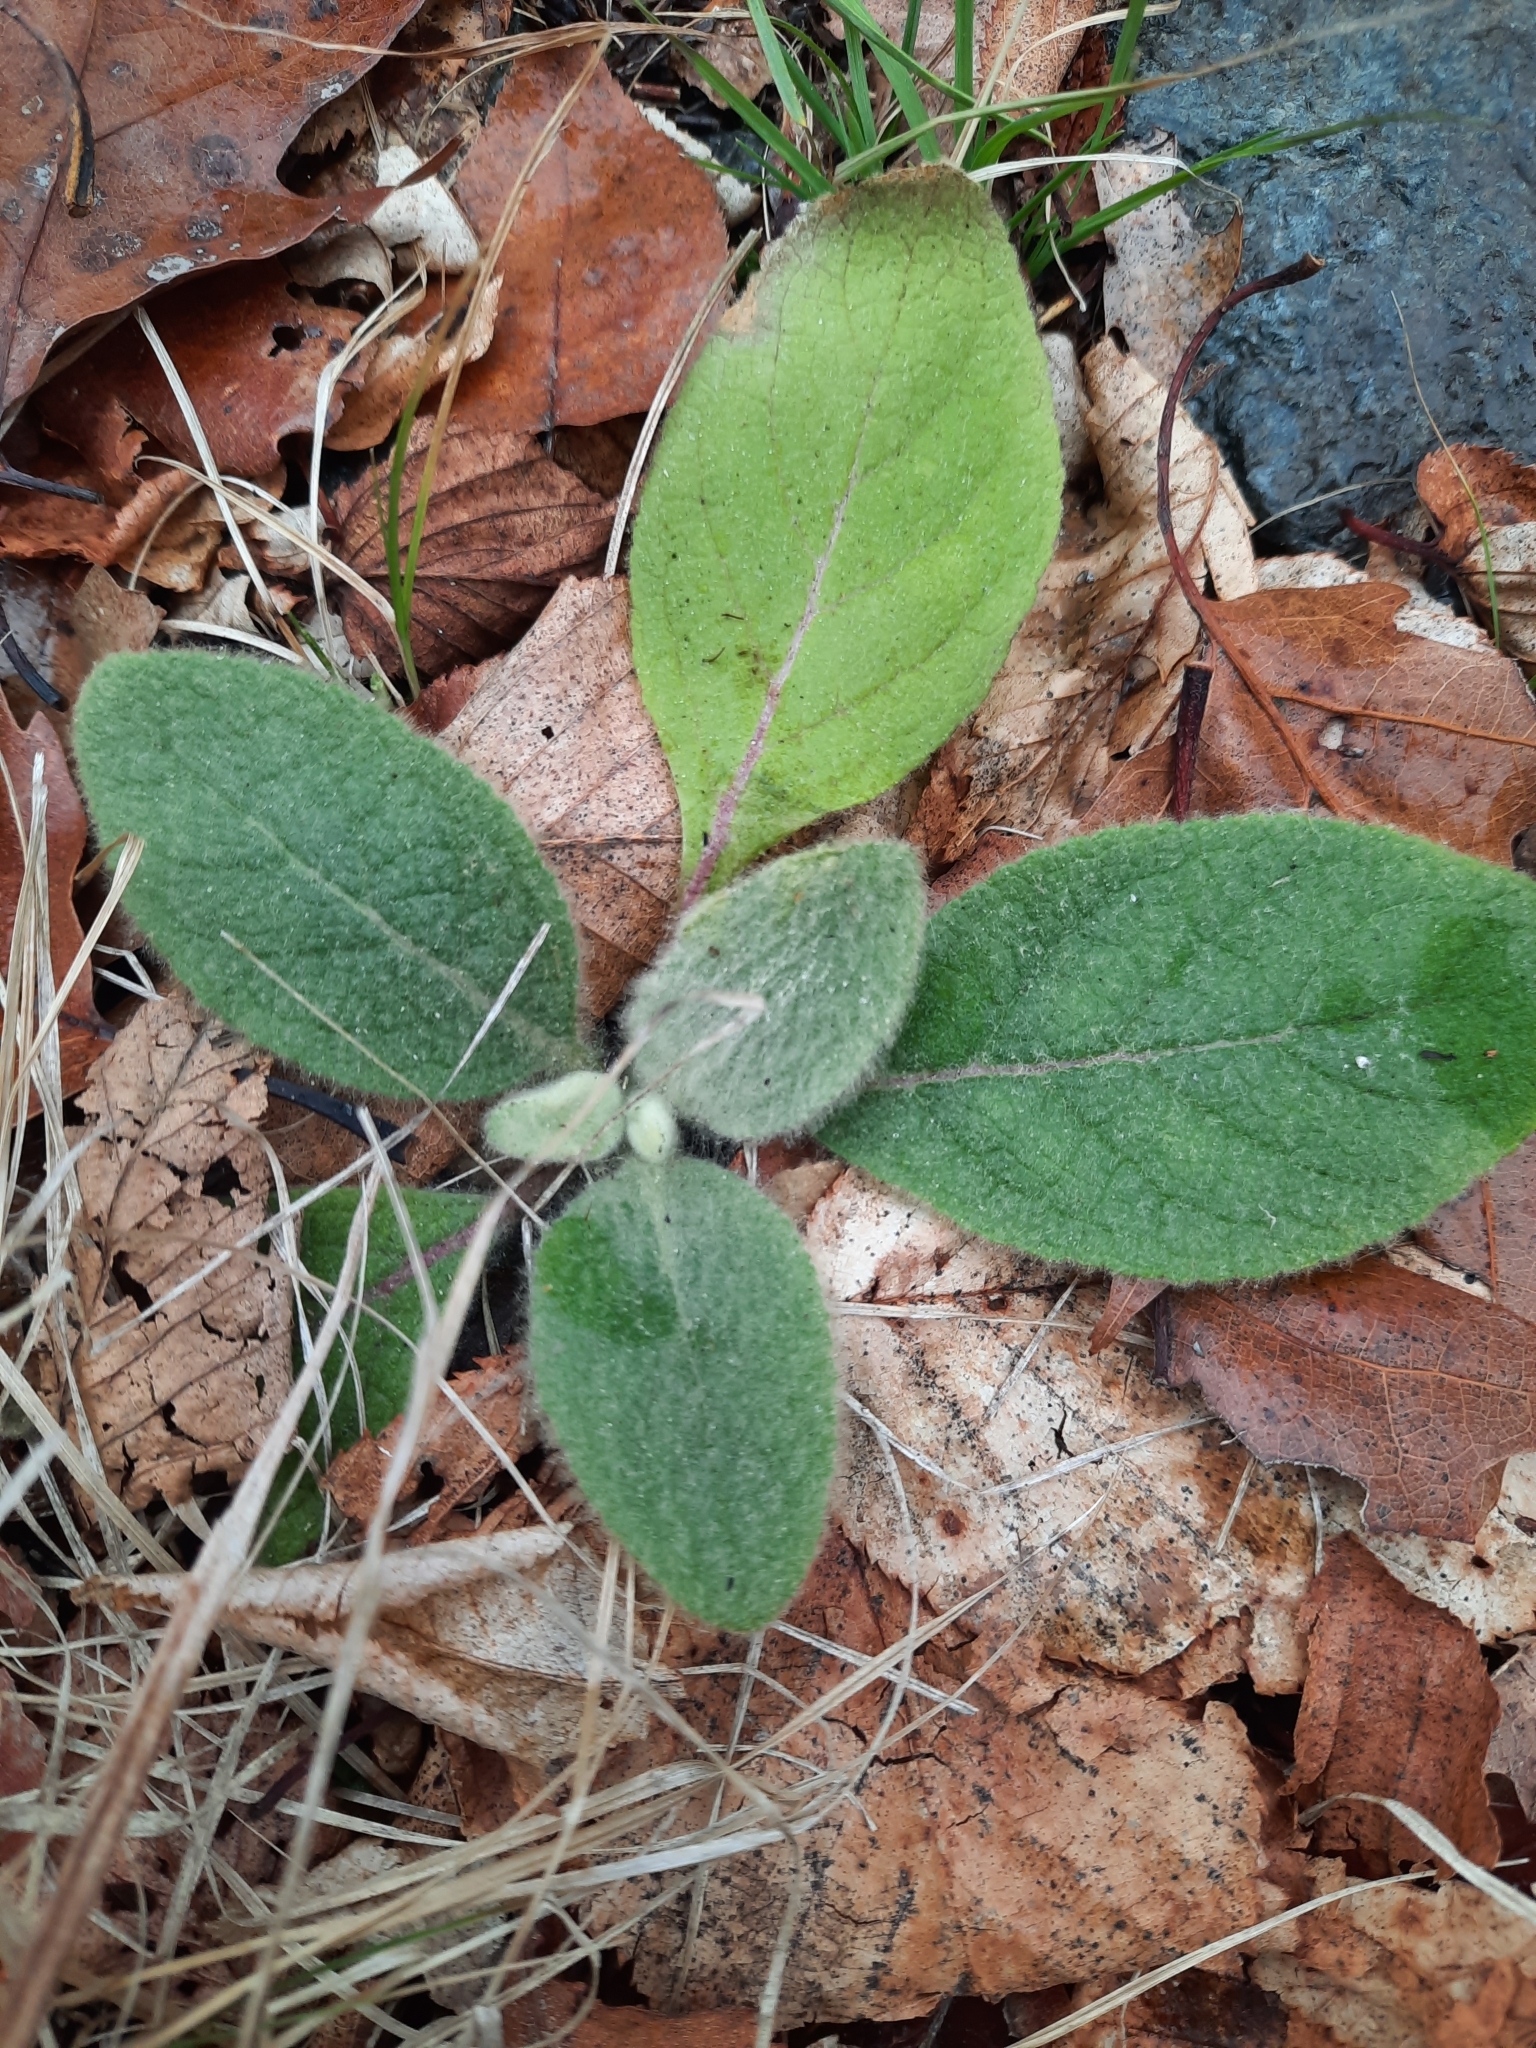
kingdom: Plantae
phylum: Tracheophyta
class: Magnoliopsida
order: Lamiales
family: Scrophulariaceae
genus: Verbascum
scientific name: Verbascum thapsus
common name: Common mullein
